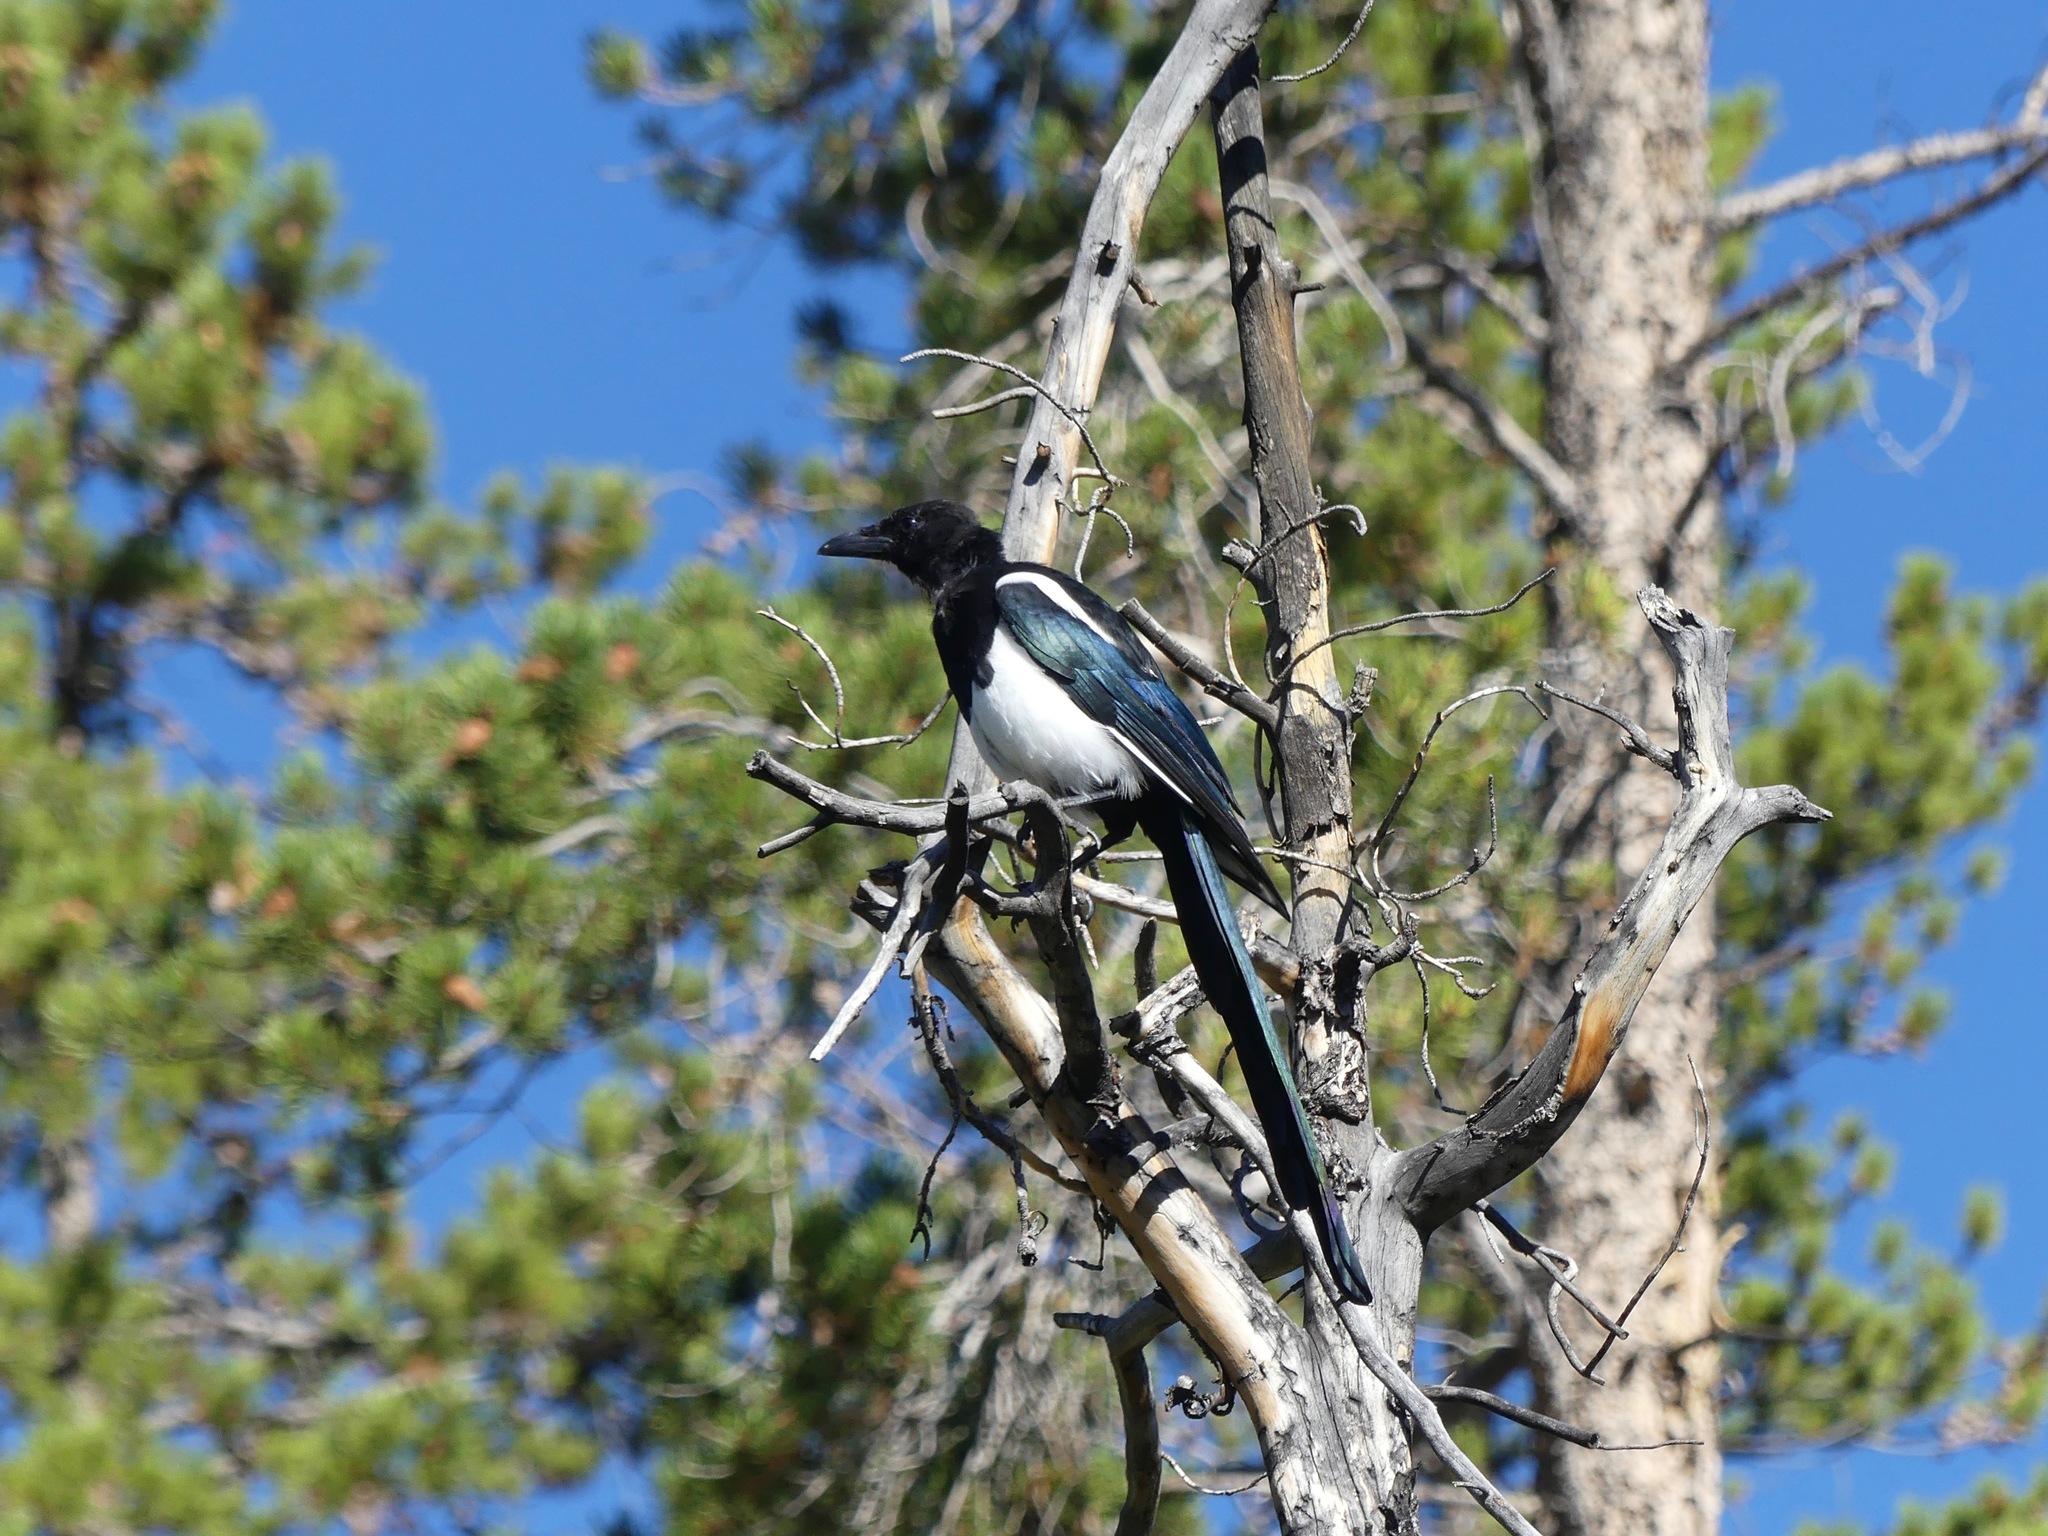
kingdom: Animalia
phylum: Chordata
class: Aves
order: Passeriformes
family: Corvidae
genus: Pica
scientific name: Pica hudsonia
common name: Black-billed magpie
